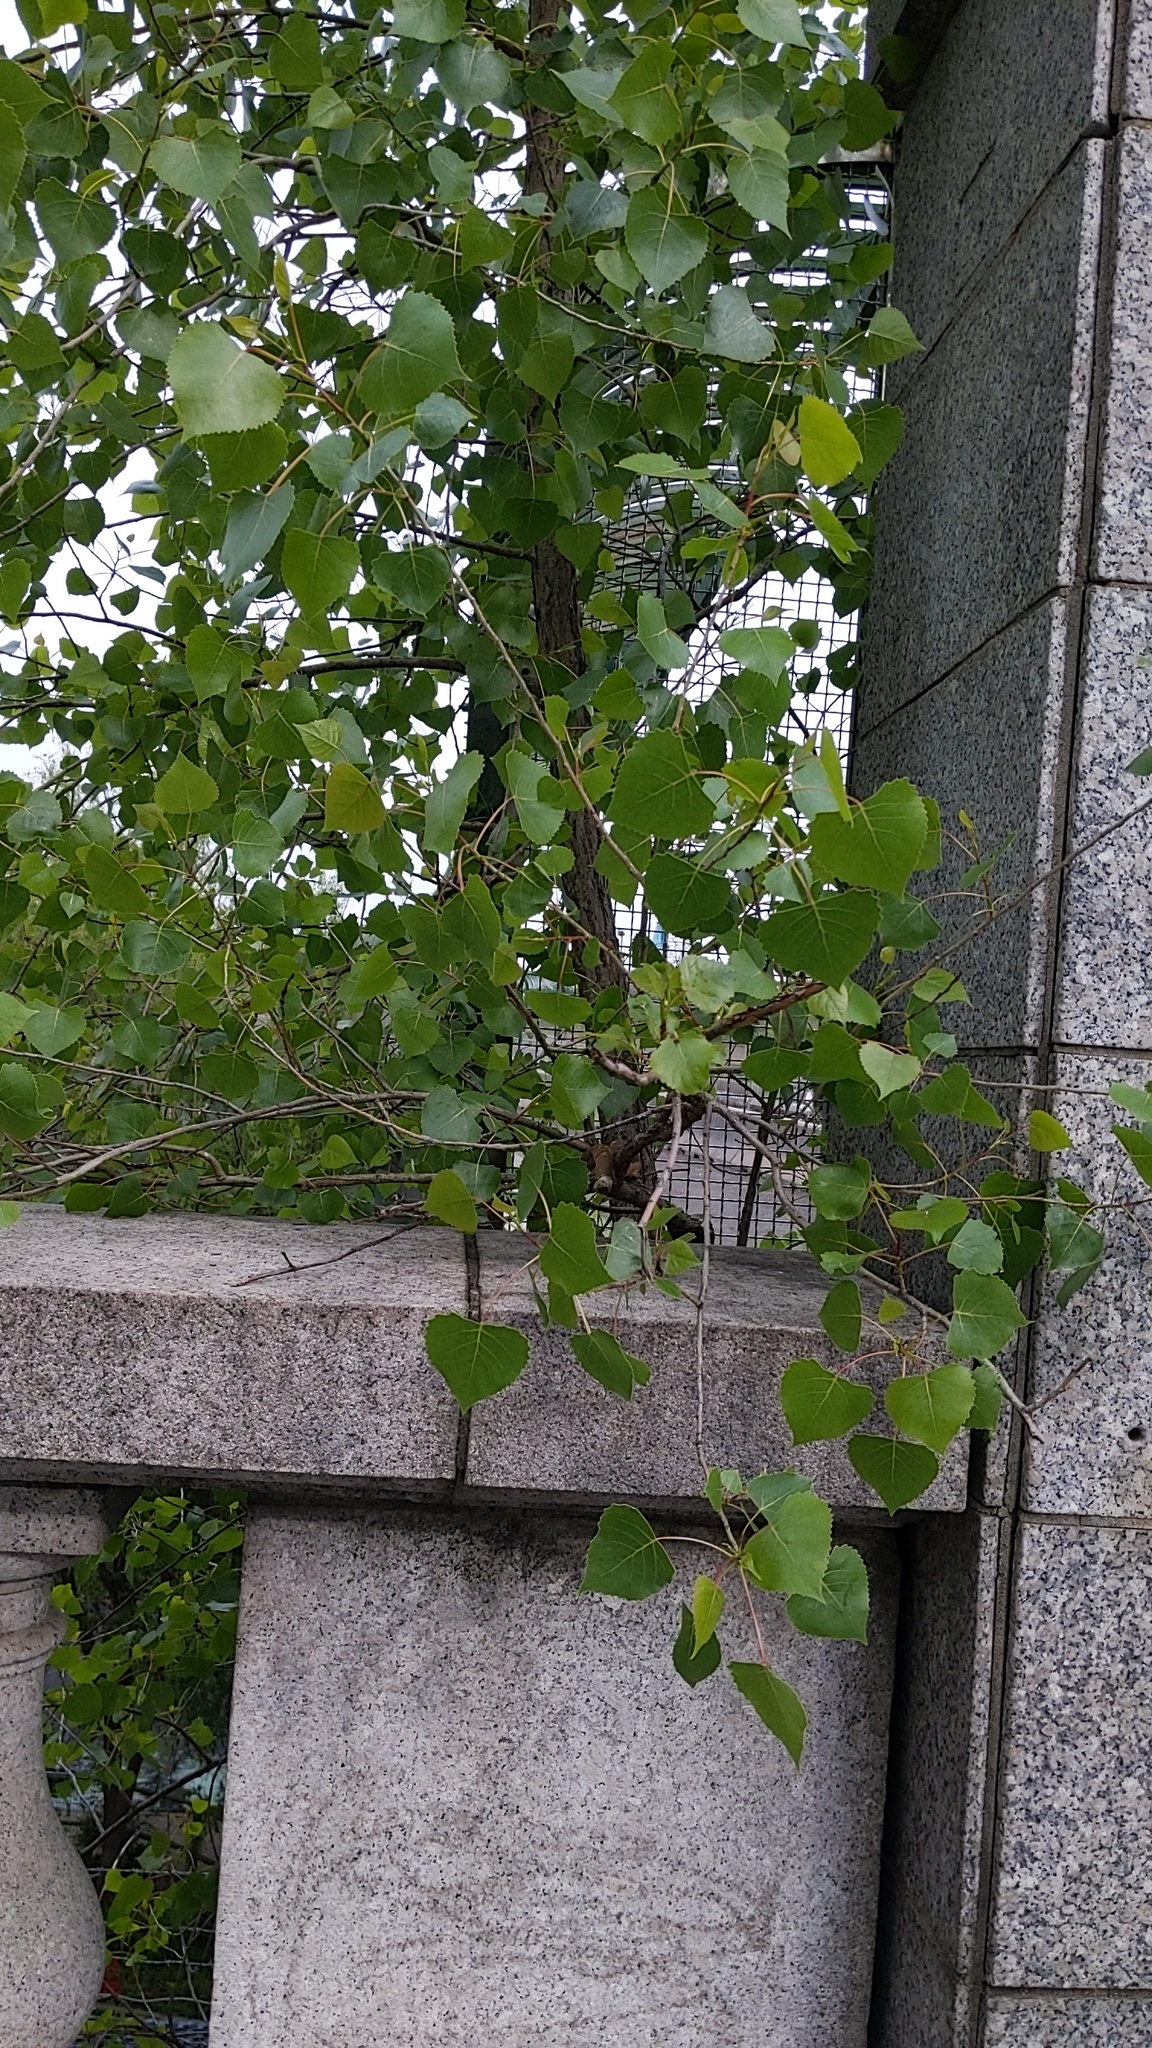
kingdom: Plantae
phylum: Tracheophyta
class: Magnoliopsida
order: Malpighiales
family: Salicaceae
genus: Populus
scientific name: Populus deltoides
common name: Eastern cottonwood
